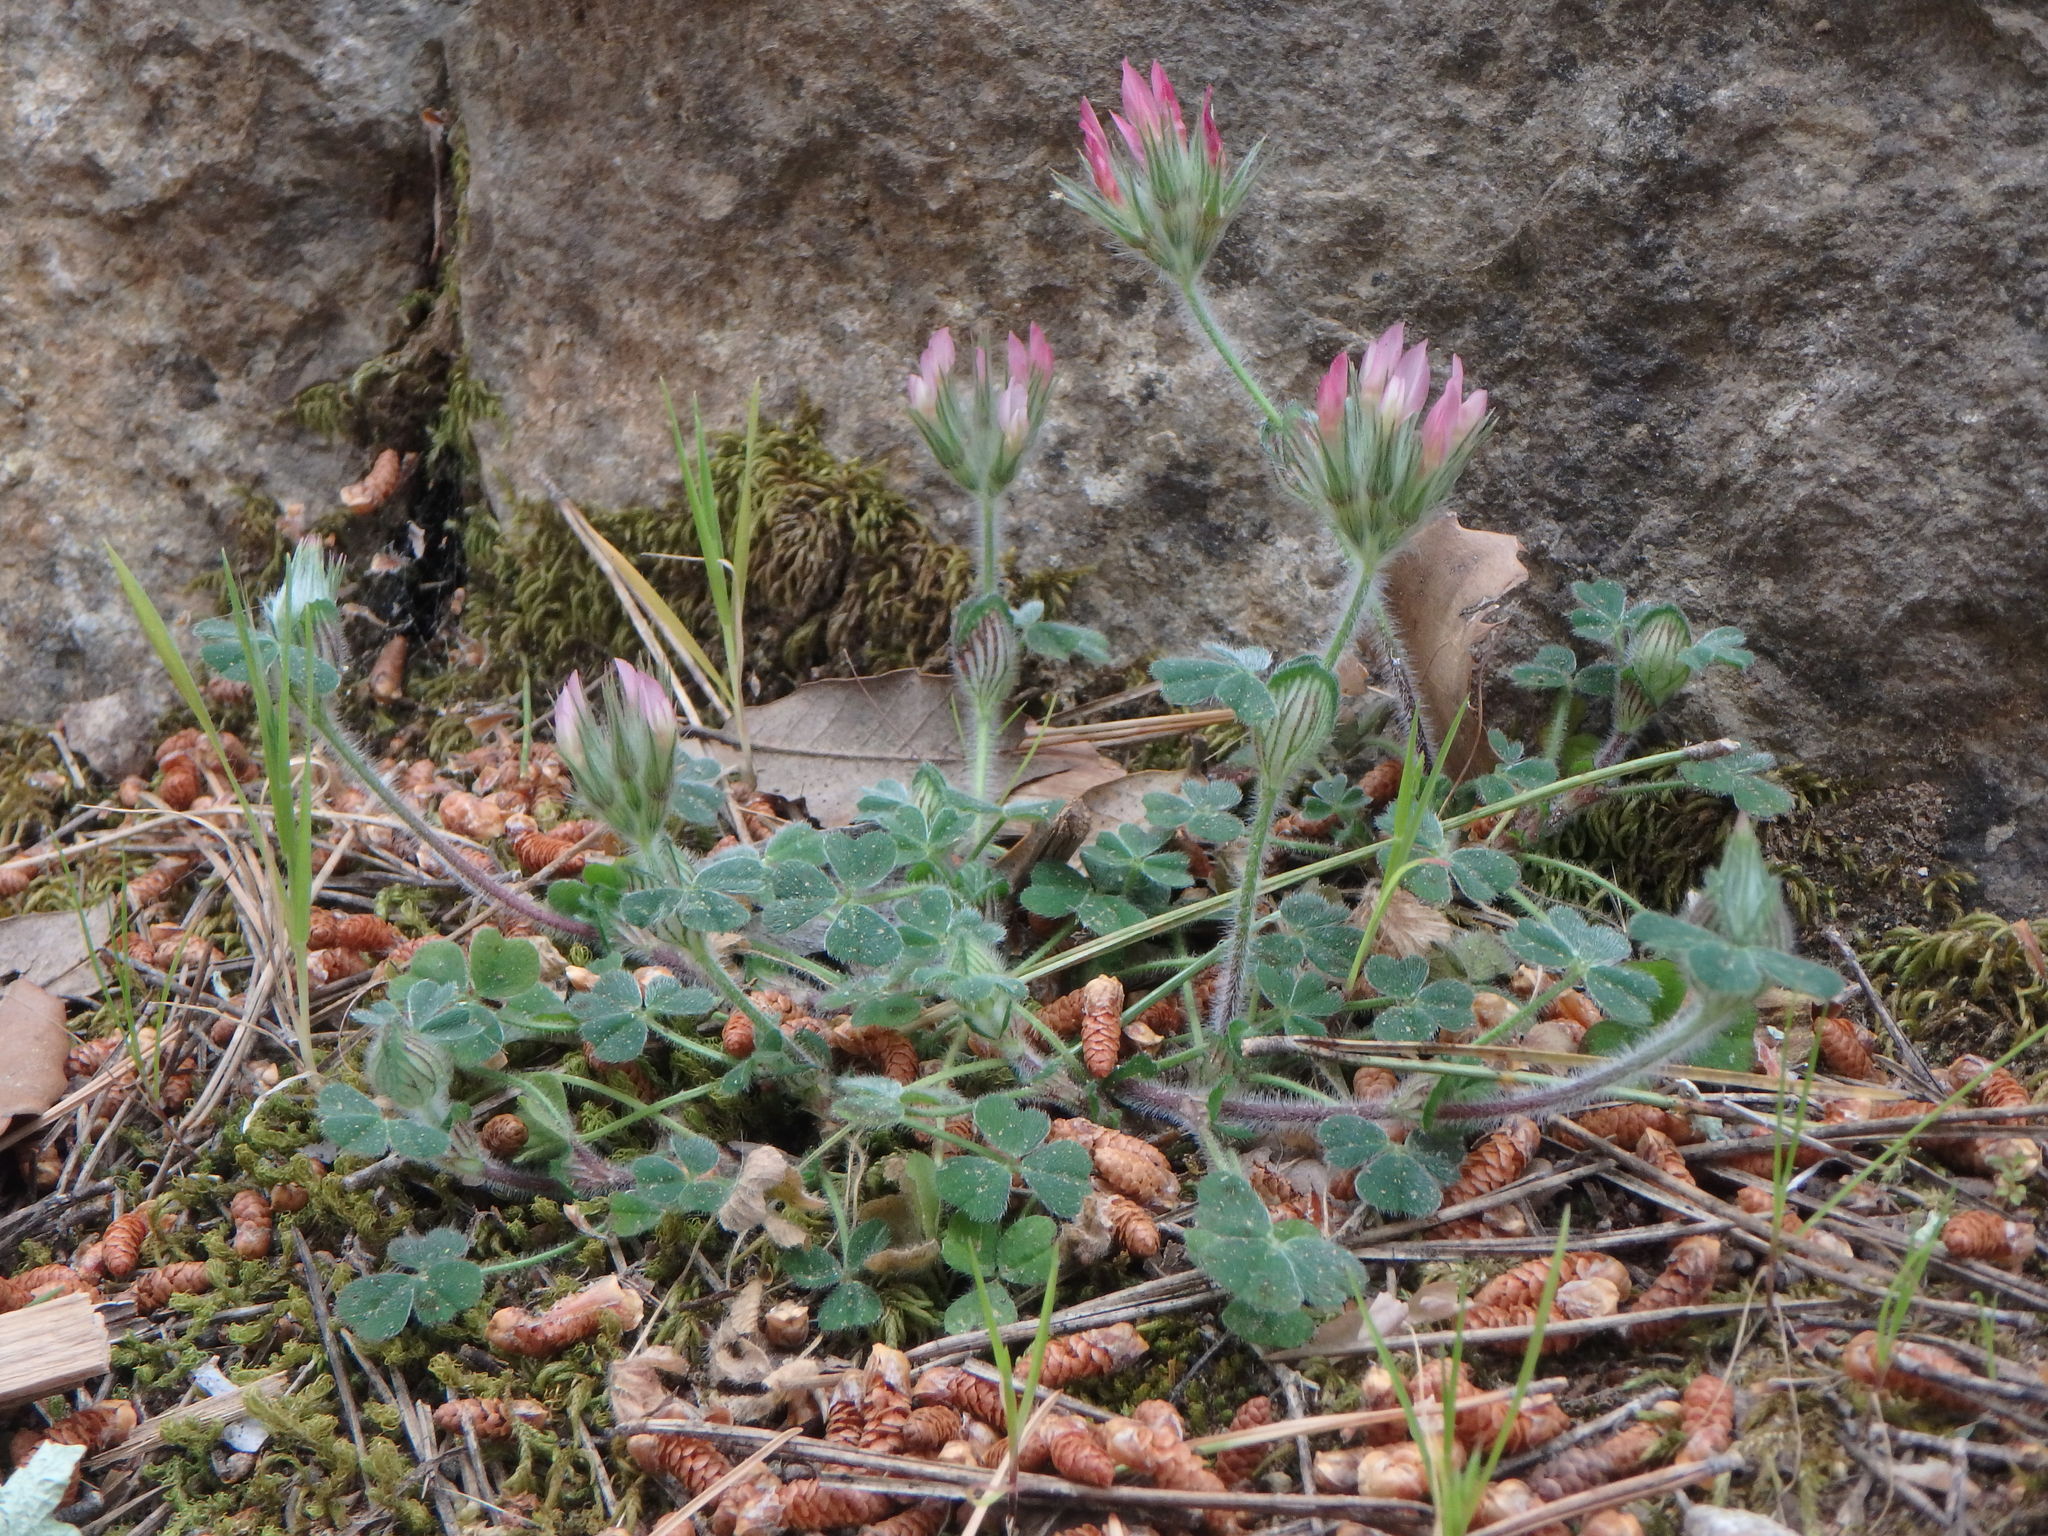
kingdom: Plantae
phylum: Tracheophyta
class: Magnoliopsida
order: Fabales
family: Fabaceae
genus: Trifolium
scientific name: Trifolium stellatum
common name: Starry clover
